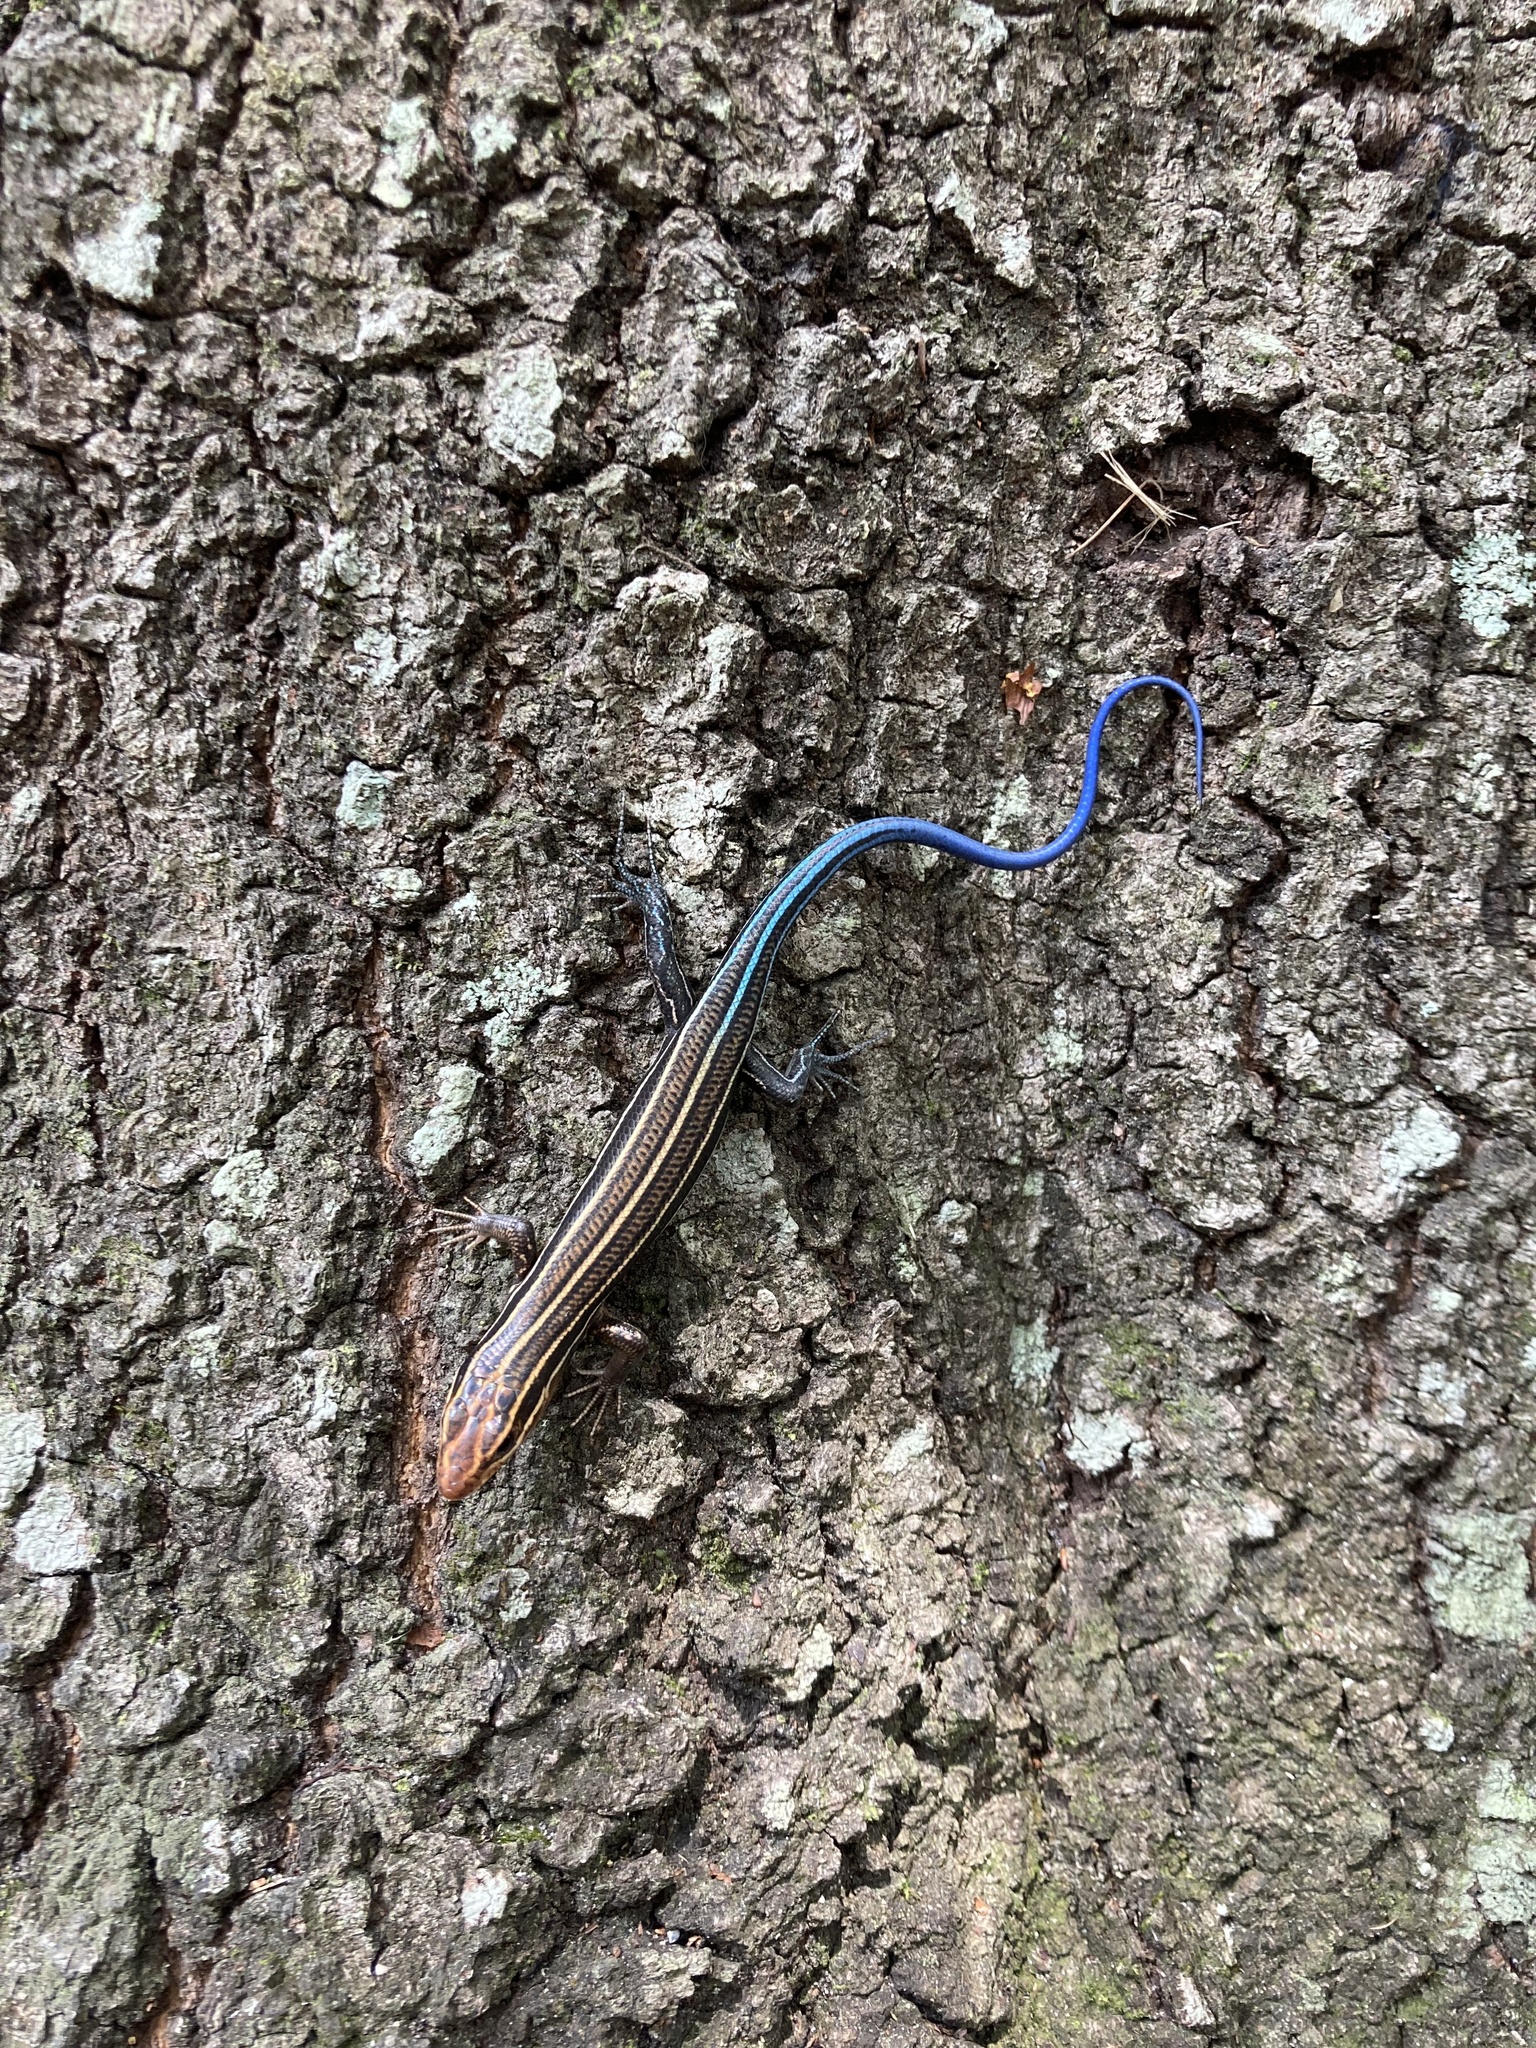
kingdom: Animalia
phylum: Chordata
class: Squamata
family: Scincidae
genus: Plestiodon
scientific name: Plestiodon inexpectatus
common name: Southeastern five-lined skink
